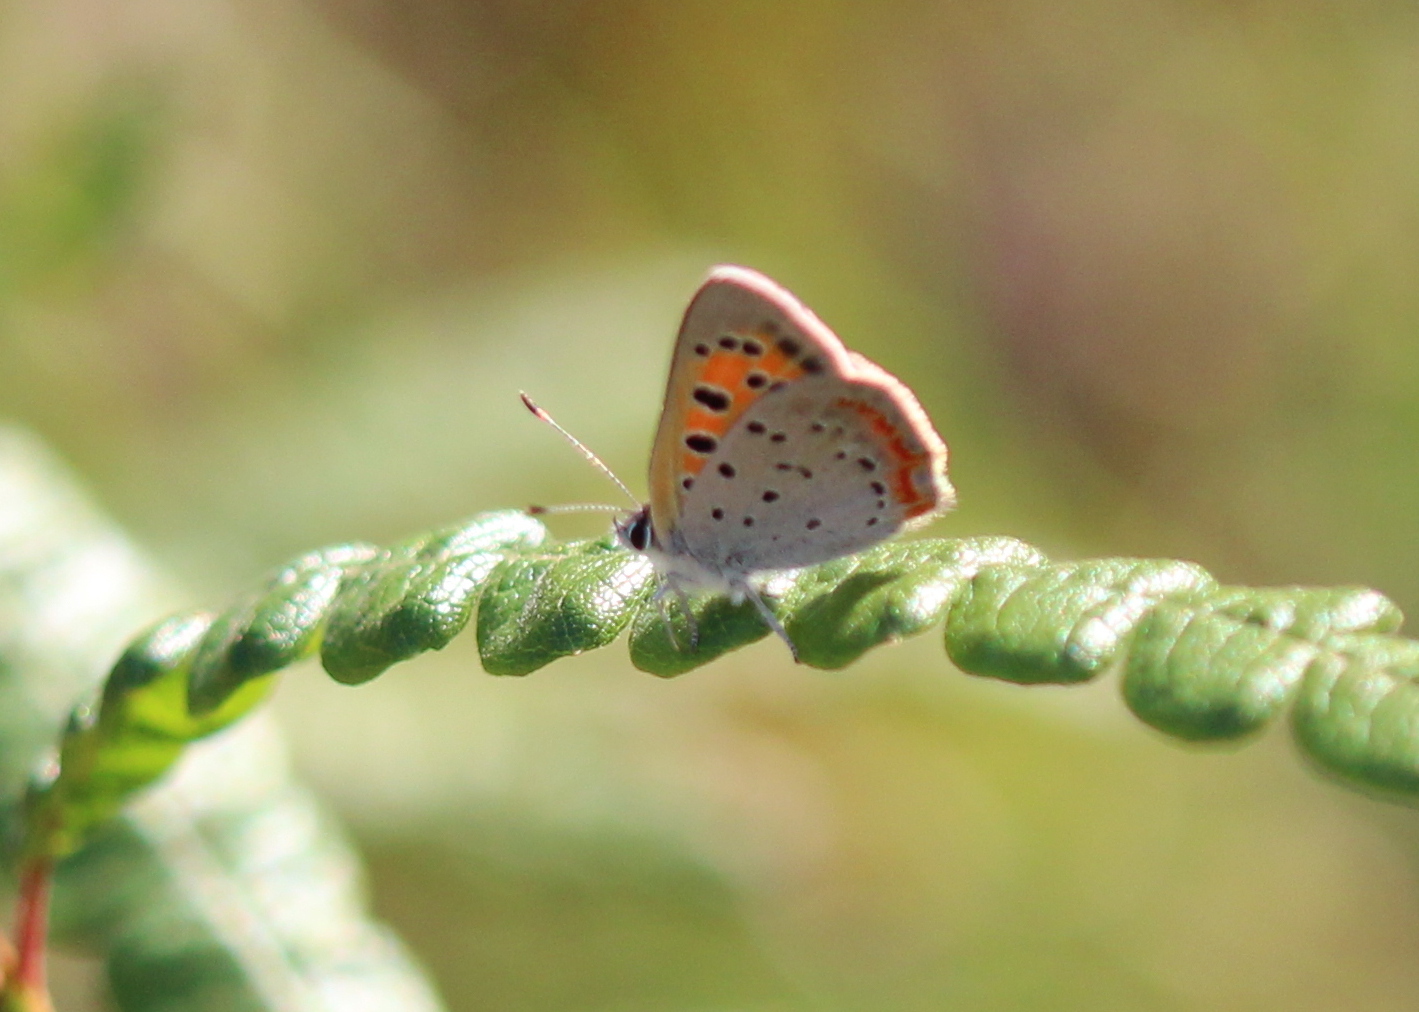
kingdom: Animalia
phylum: Arthropoda
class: Insecta
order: Lepidoptera
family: Lycaenidae
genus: Lycaena
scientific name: Lycaena hypophlaeas
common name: American copper
